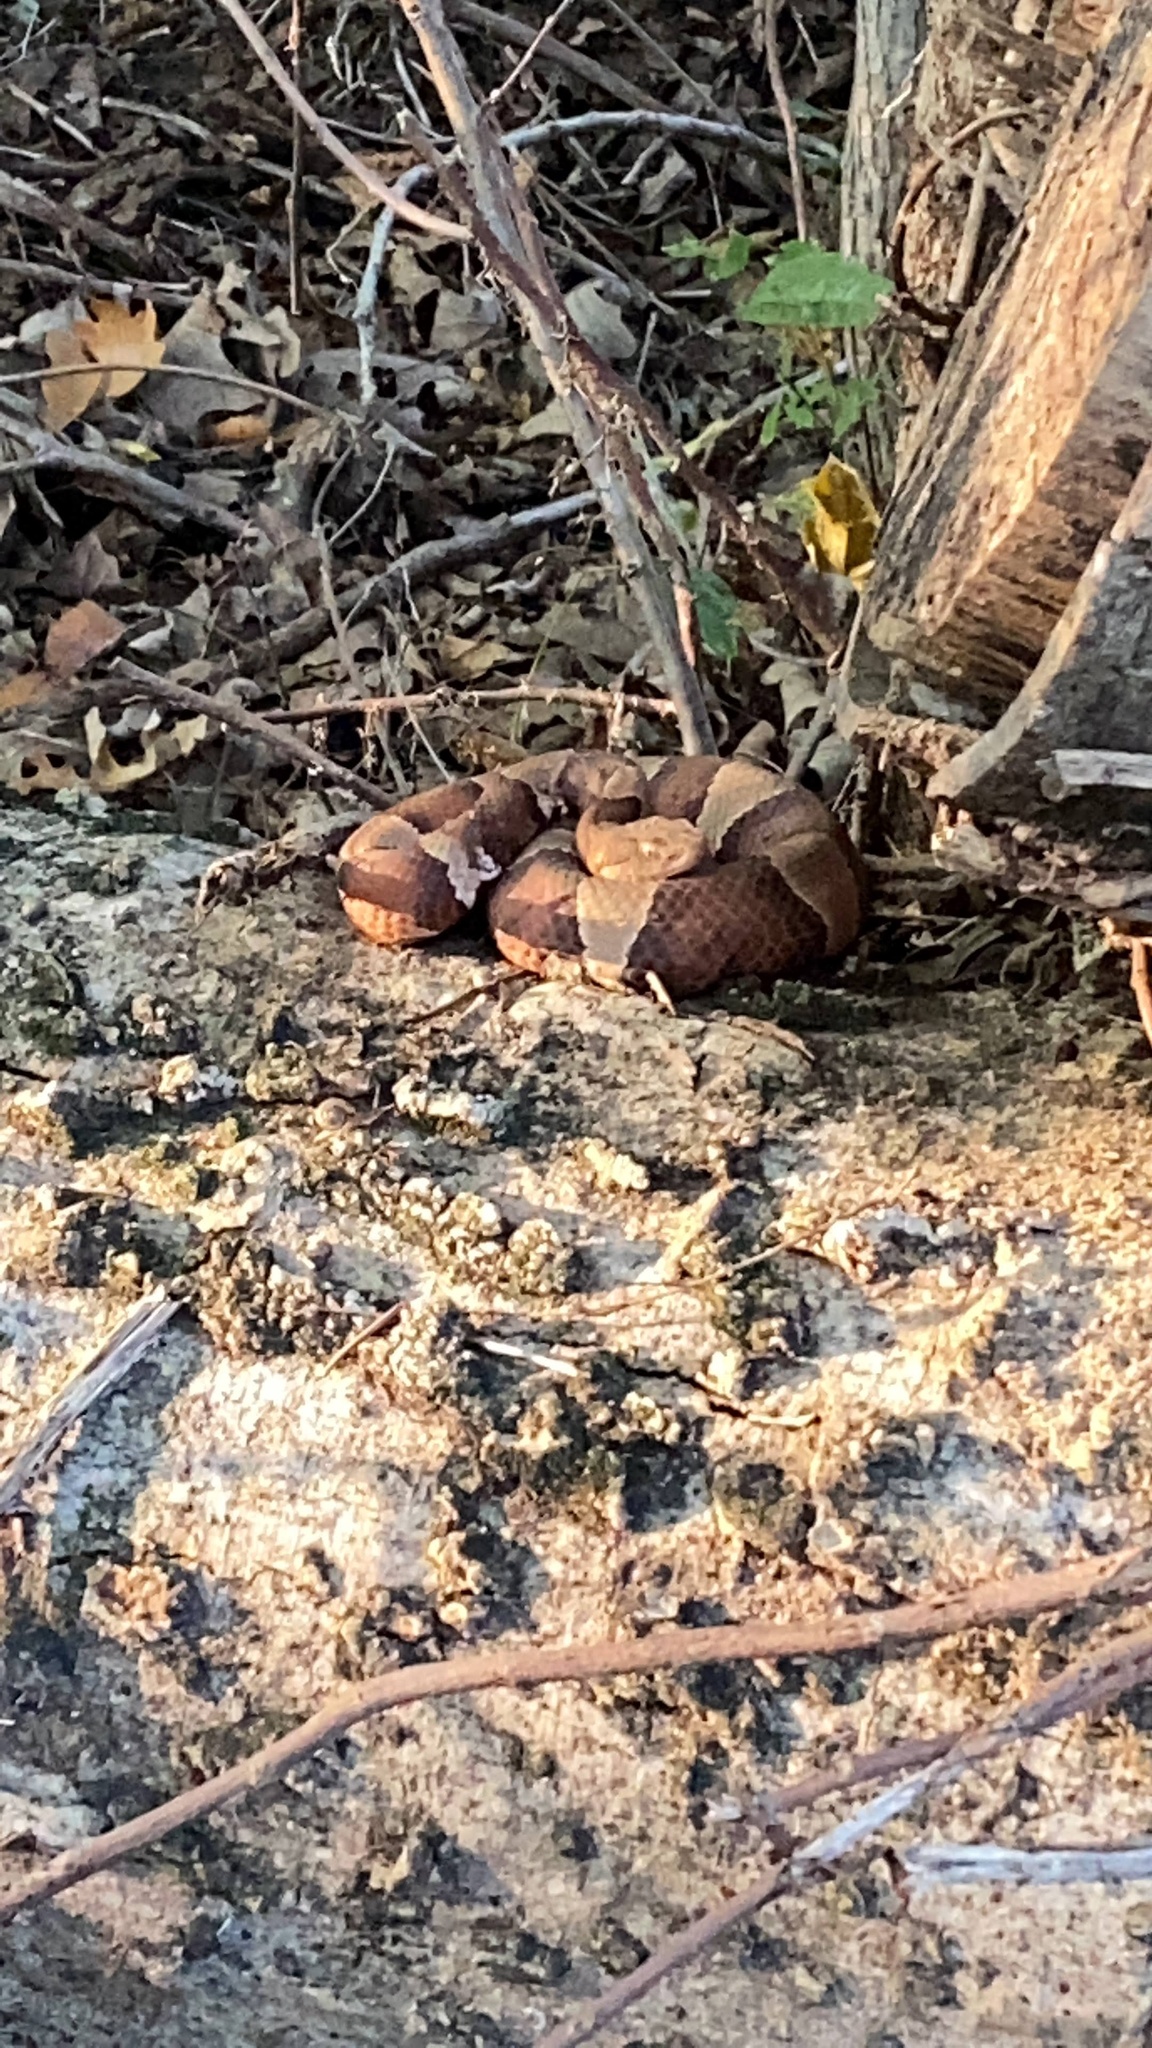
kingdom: Animalia
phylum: Chordata
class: Squamata
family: Viperidae
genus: Agkistrodon
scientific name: Agkistrodon laticinctus
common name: Broad-banded copperhead
